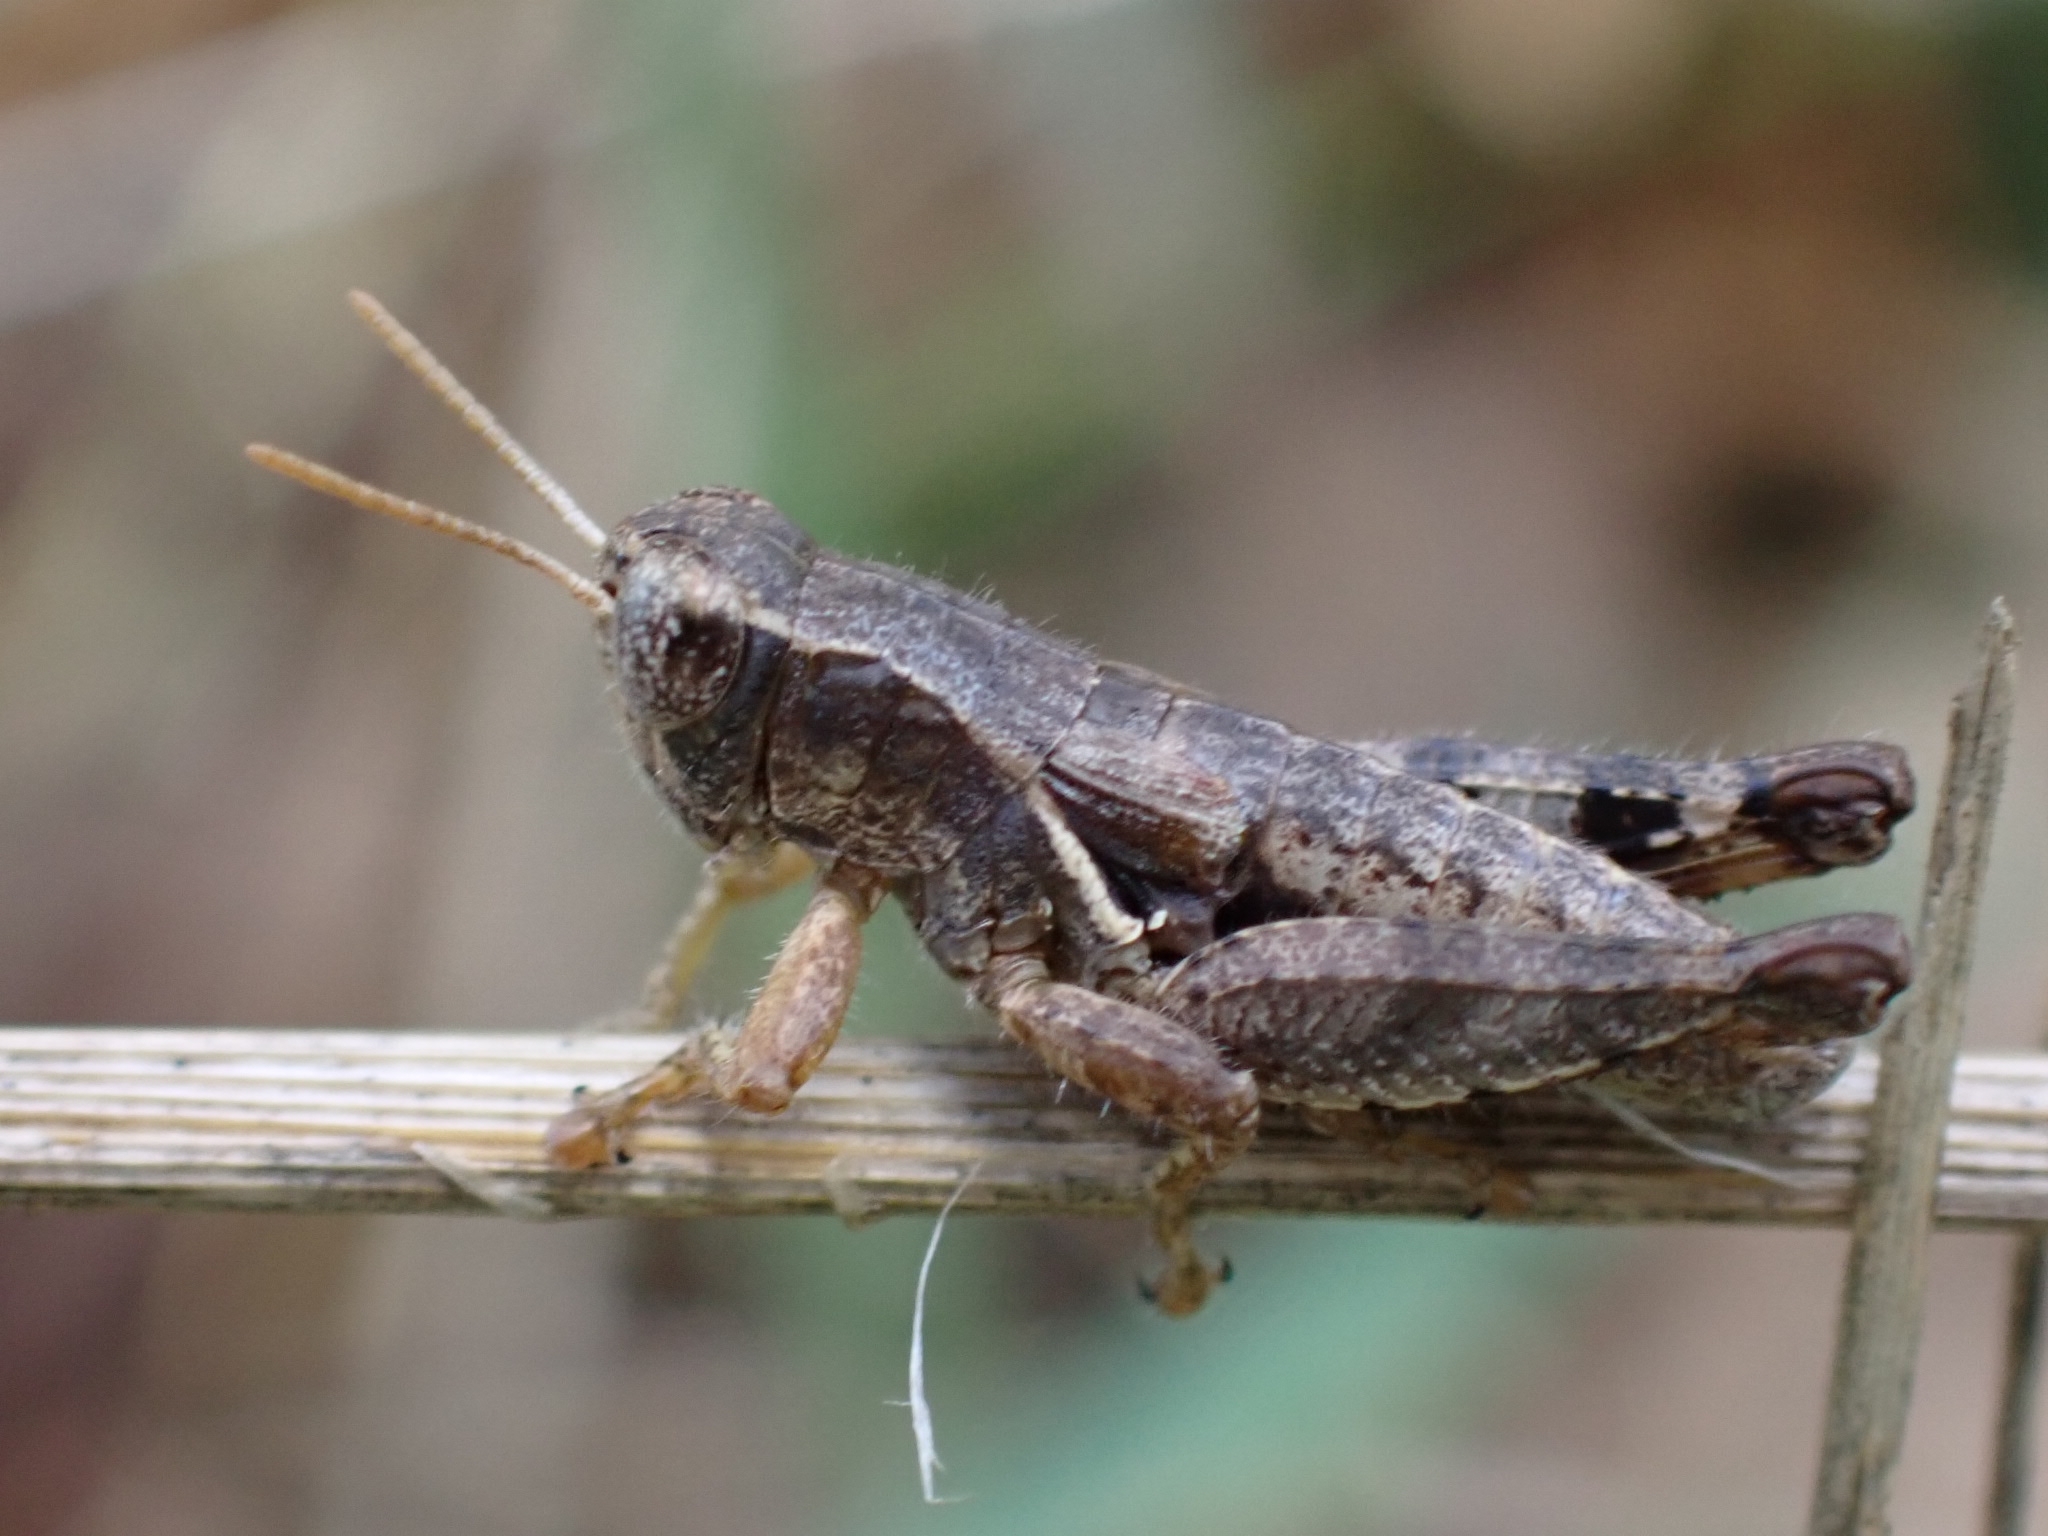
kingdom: Animalia
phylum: Arthropoda
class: Insecta
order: Orthoptera
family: Acrididae
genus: Pezotettix
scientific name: Pezotettix giornae
